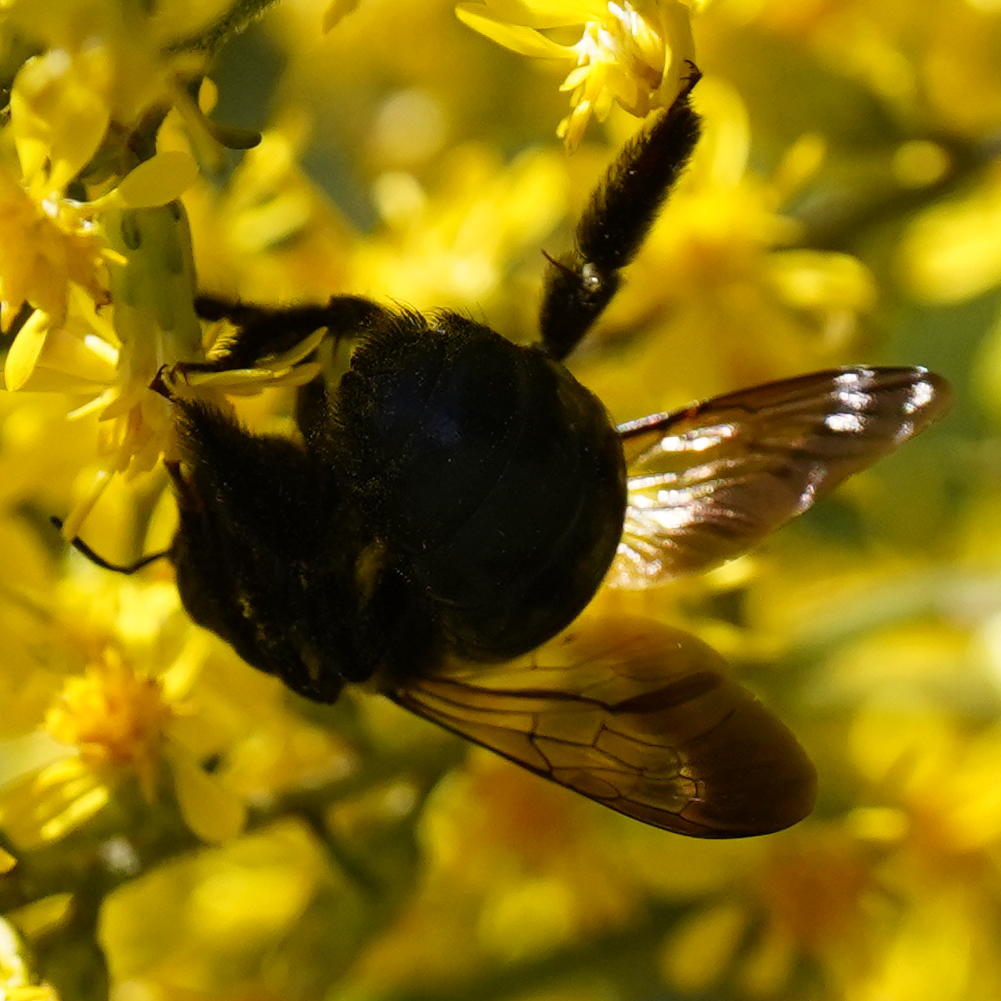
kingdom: Animalia
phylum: Arthropoda
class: Insecta
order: Hymenoptera
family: Apidae
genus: Xylocopa
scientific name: Xylocopa virginica
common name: Carpenter bee
